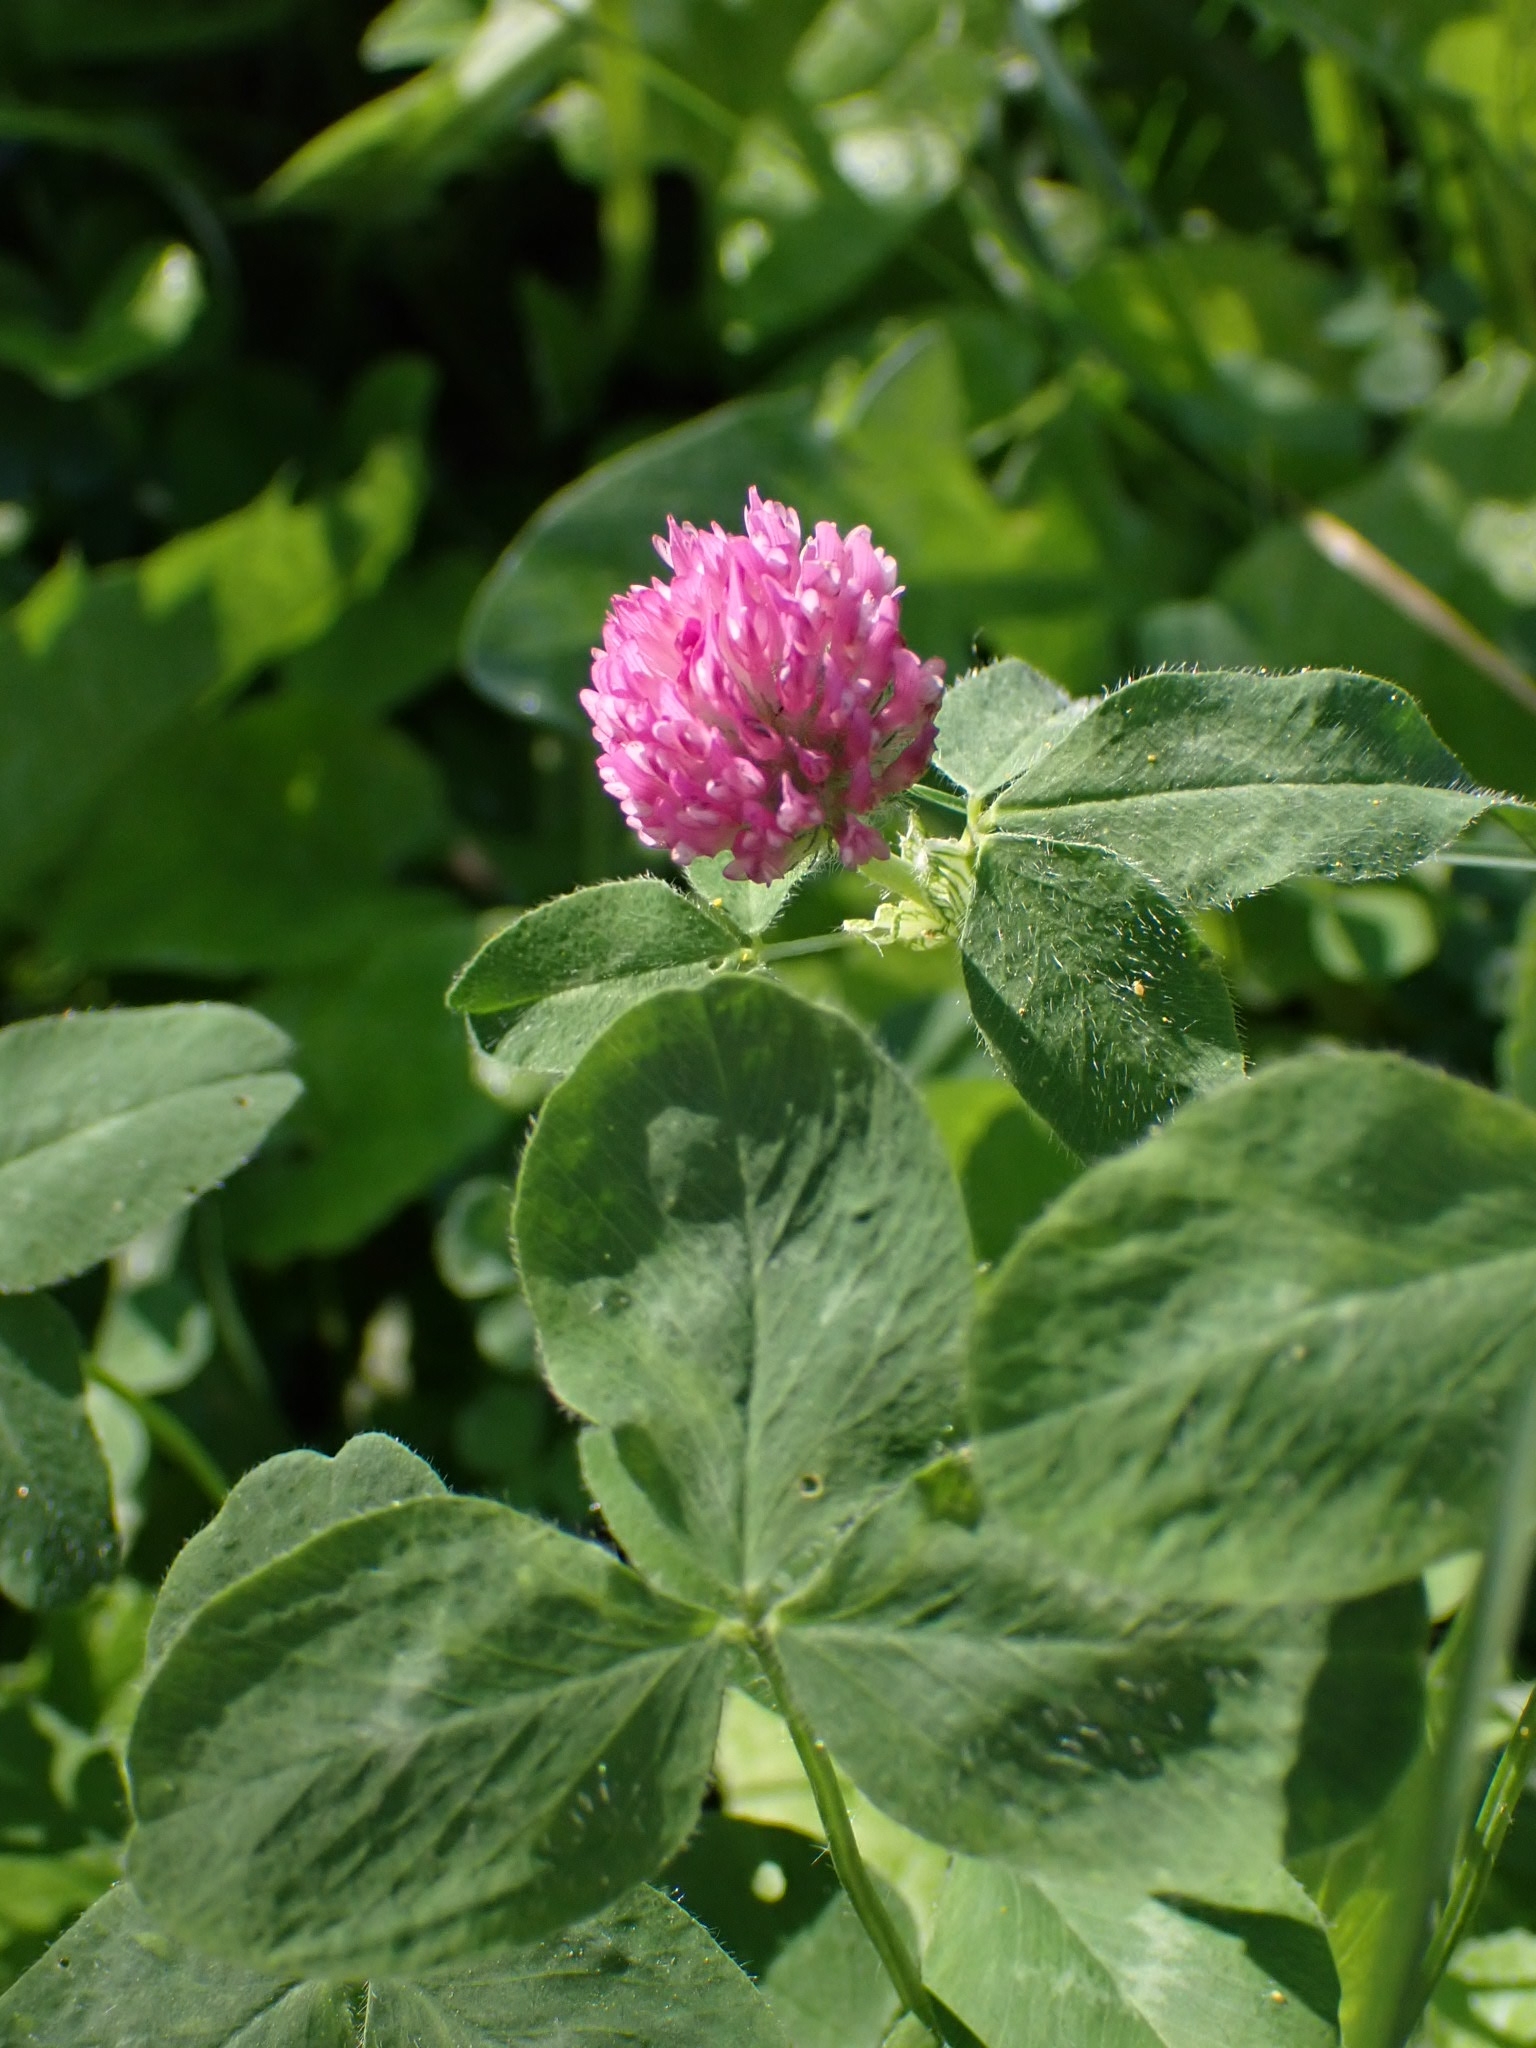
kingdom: Plantae
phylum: Tracheophyta
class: Magnoliopsida
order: Fabales
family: Fabaceae
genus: Trifolium
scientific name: Trifolium pratense
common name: Red clover
